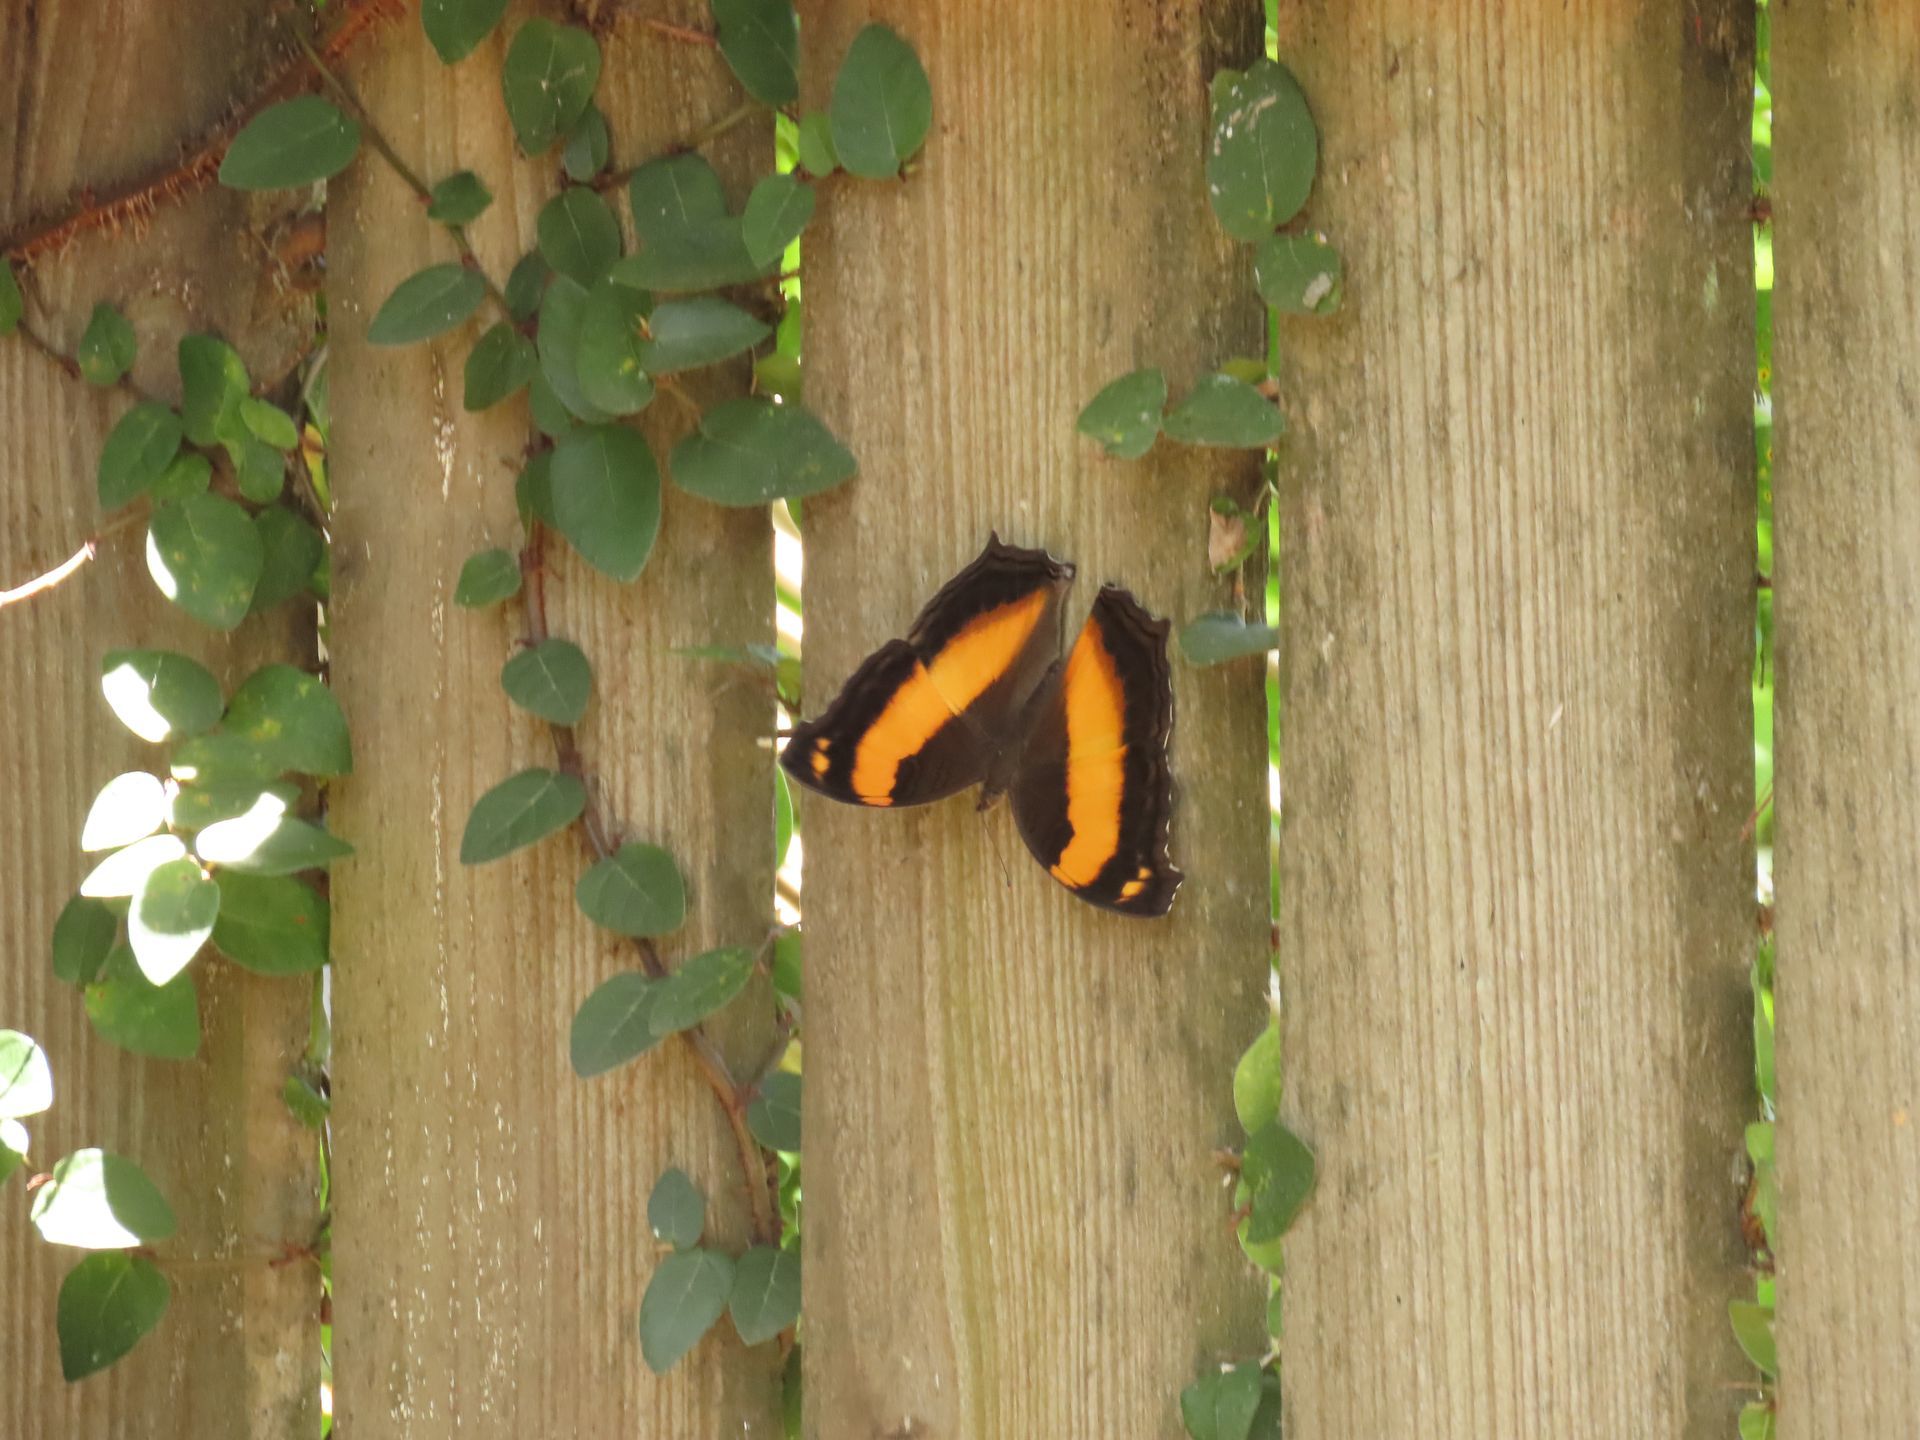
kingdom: Animalia
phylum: Arthropoda
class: Insecta
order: Lepidoptera
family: Nymphalidae
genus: Yoma
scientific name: Yoma sabina
